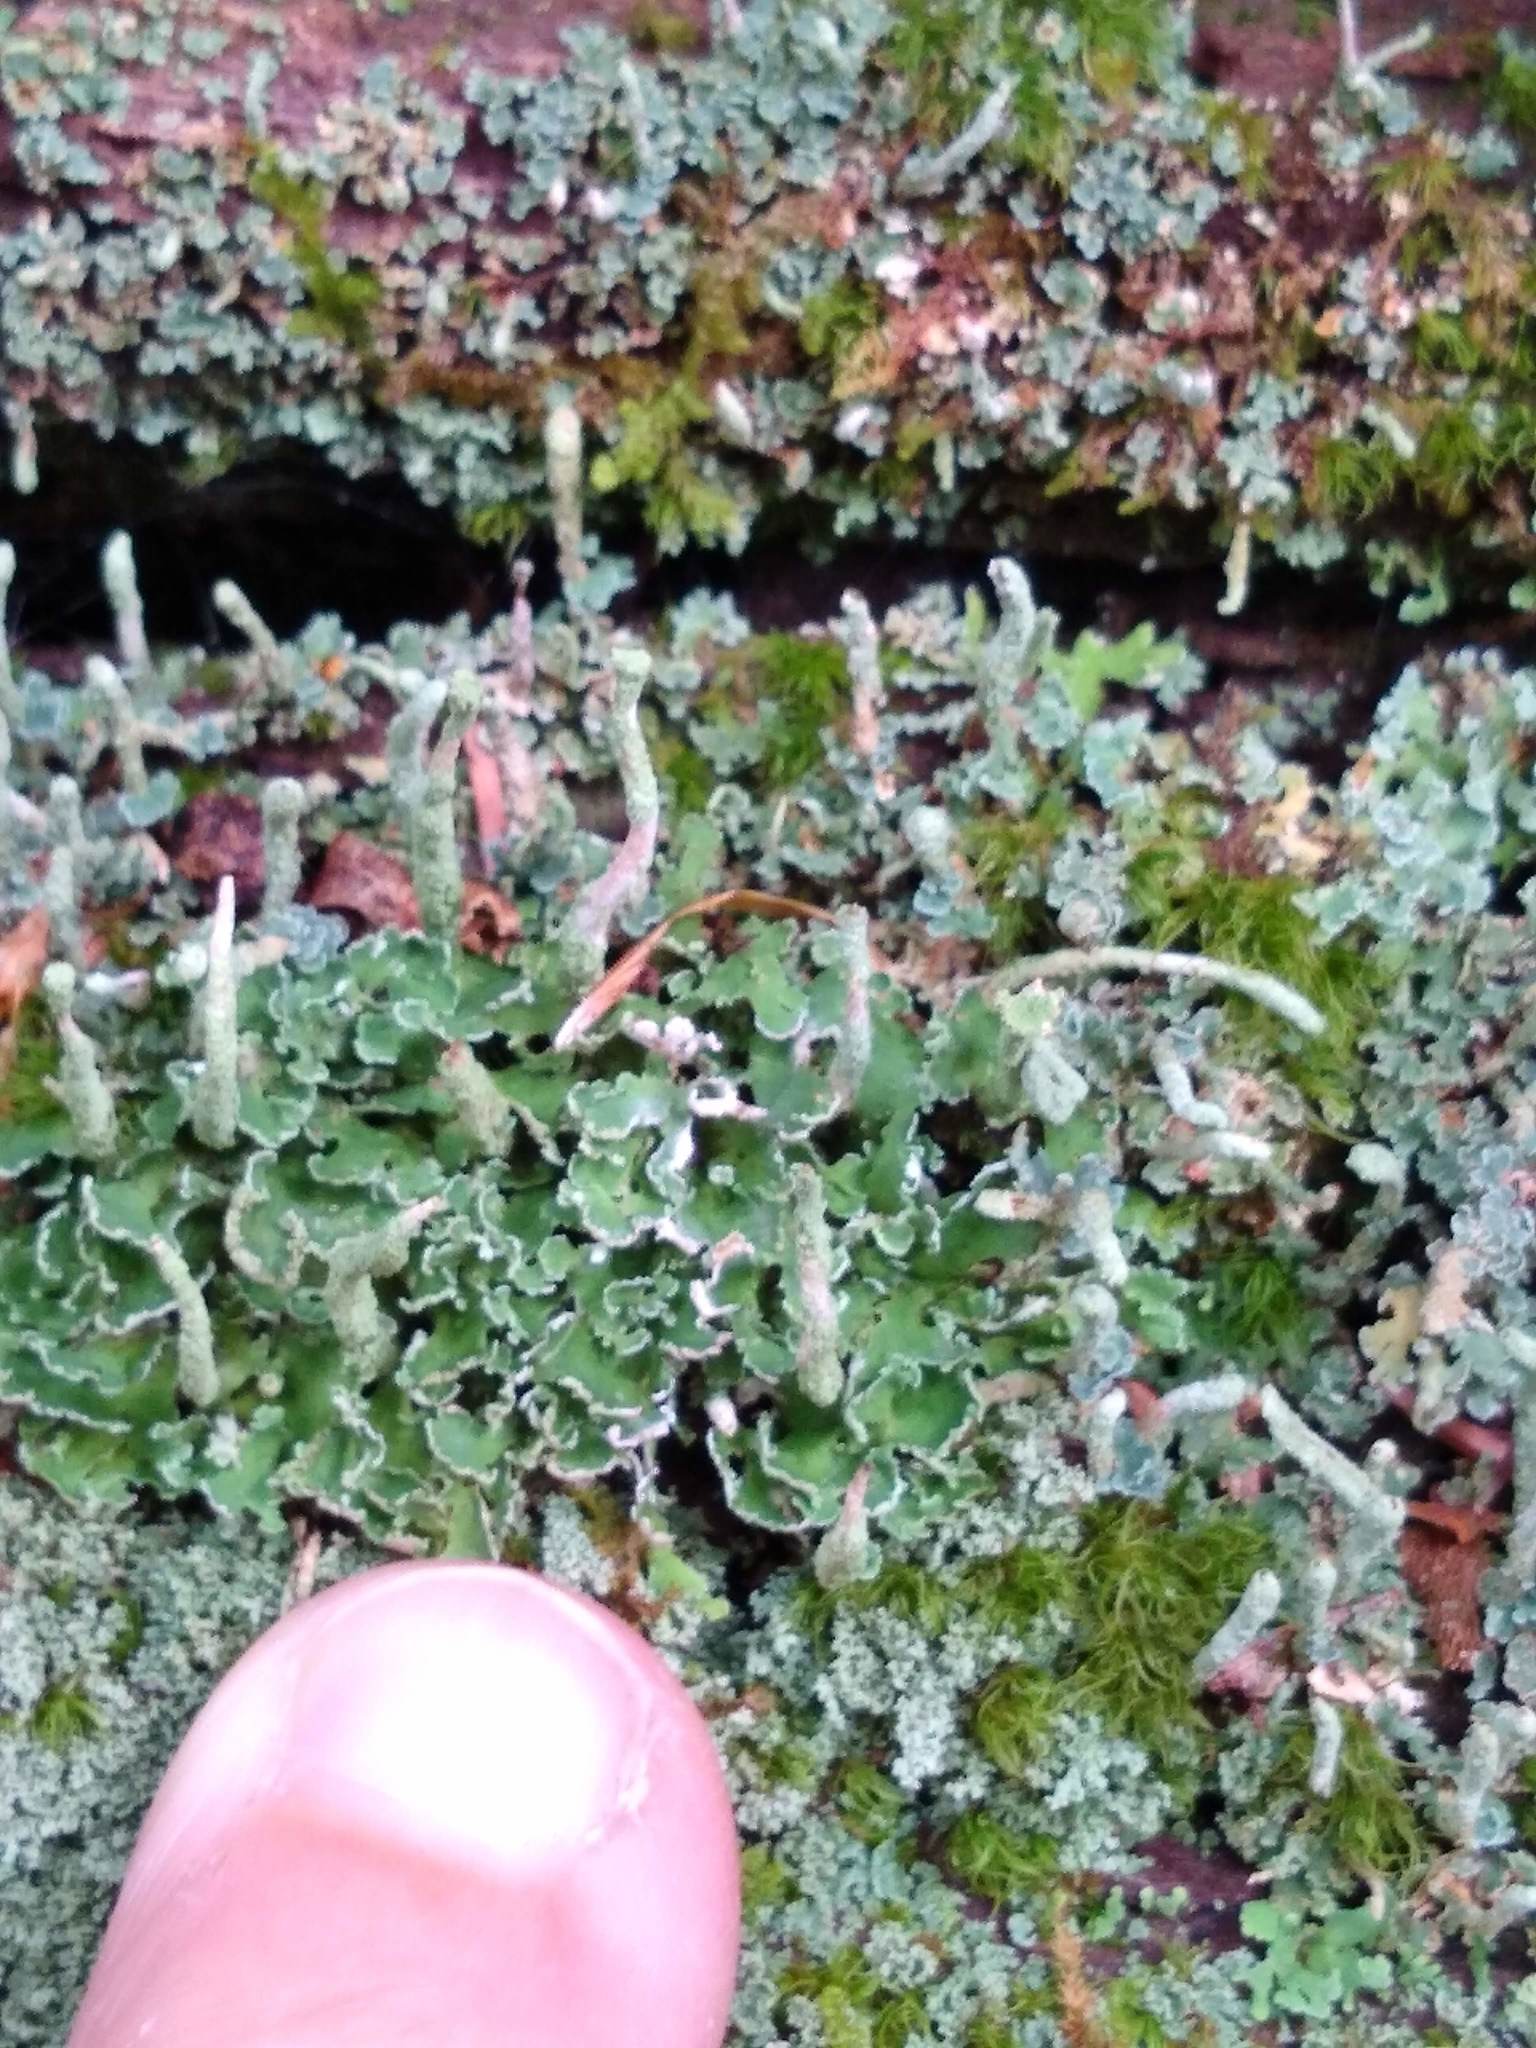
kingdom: Fungi
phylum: Ascomycota
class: Lecanoromycetes
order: Lecanorales
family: Cladoniaceae
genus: Cladonia
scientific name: Cladonia coniocraea
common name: Common powderhorn
